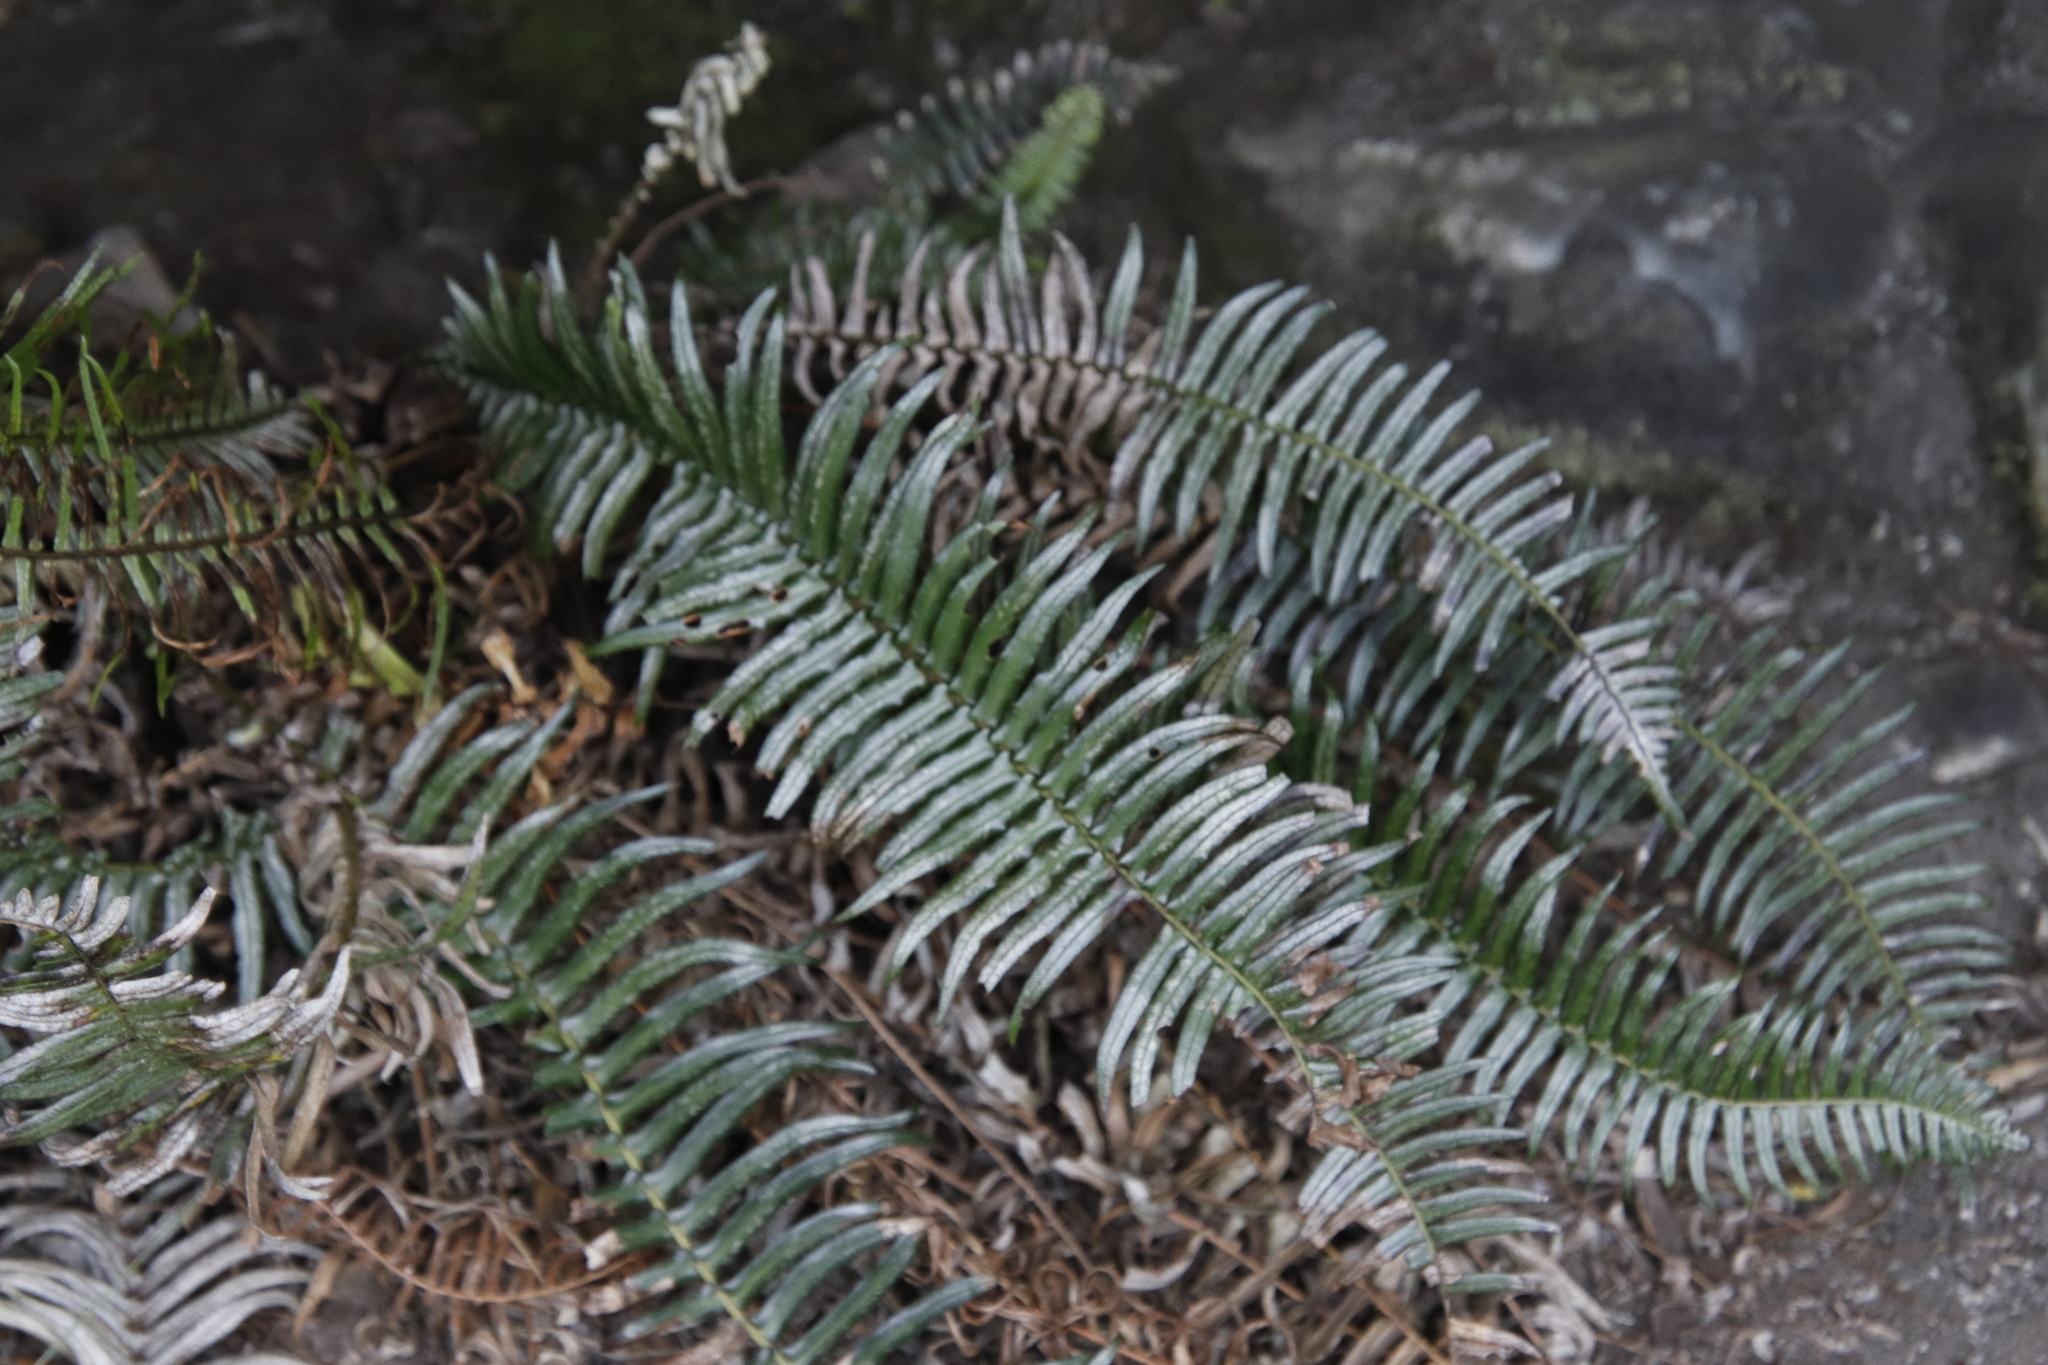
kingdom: Plantae
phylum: Tracheophyta
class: Polypodiopsida
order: Polypodiales
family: Blechnaceae
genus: Blechnum
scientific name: Blechnum punctulatum
